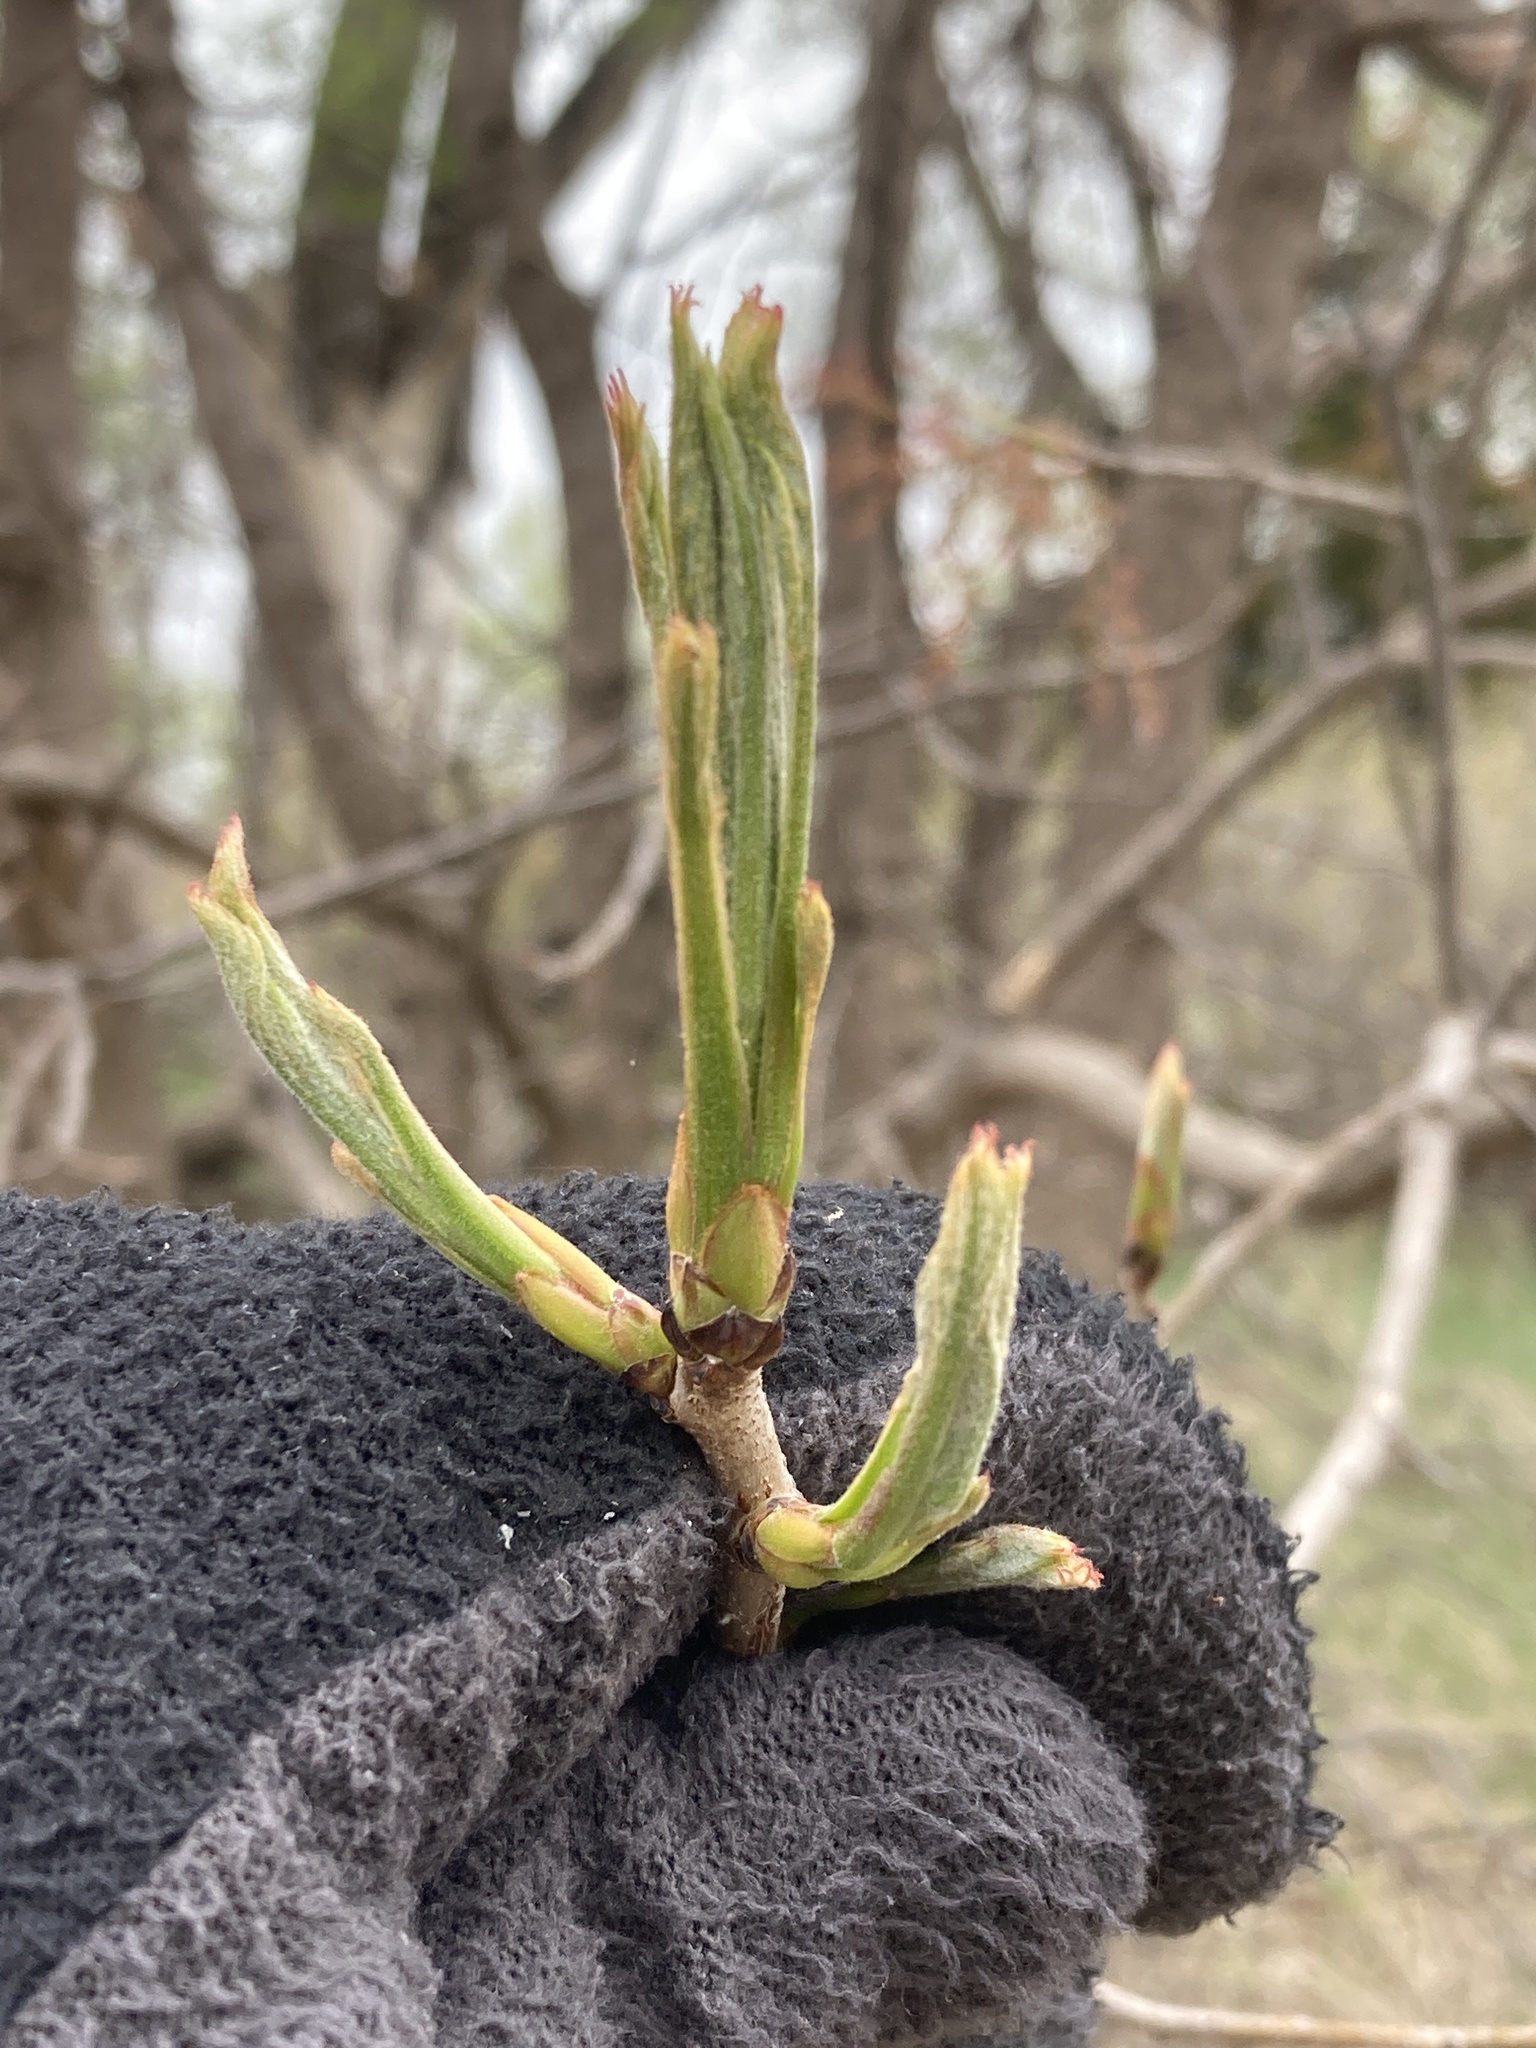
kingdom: Plantae
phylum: Tracheophyta
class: Magnoliopsida
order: Sapindales
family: Anacardiaceae
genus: Pistacia
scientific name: Pistacia chinensis
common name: Chinese pistache
